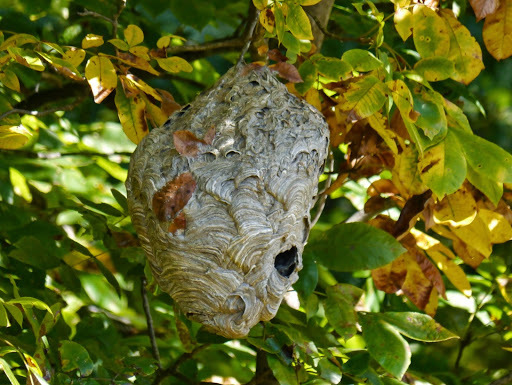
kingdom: Animalia
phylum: Arthropoda
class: Insecta
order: Hymenoptera
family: Vespidae
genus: Dolichovespula
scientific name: Dolichovespula maculata
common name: Bald-faced hornet
